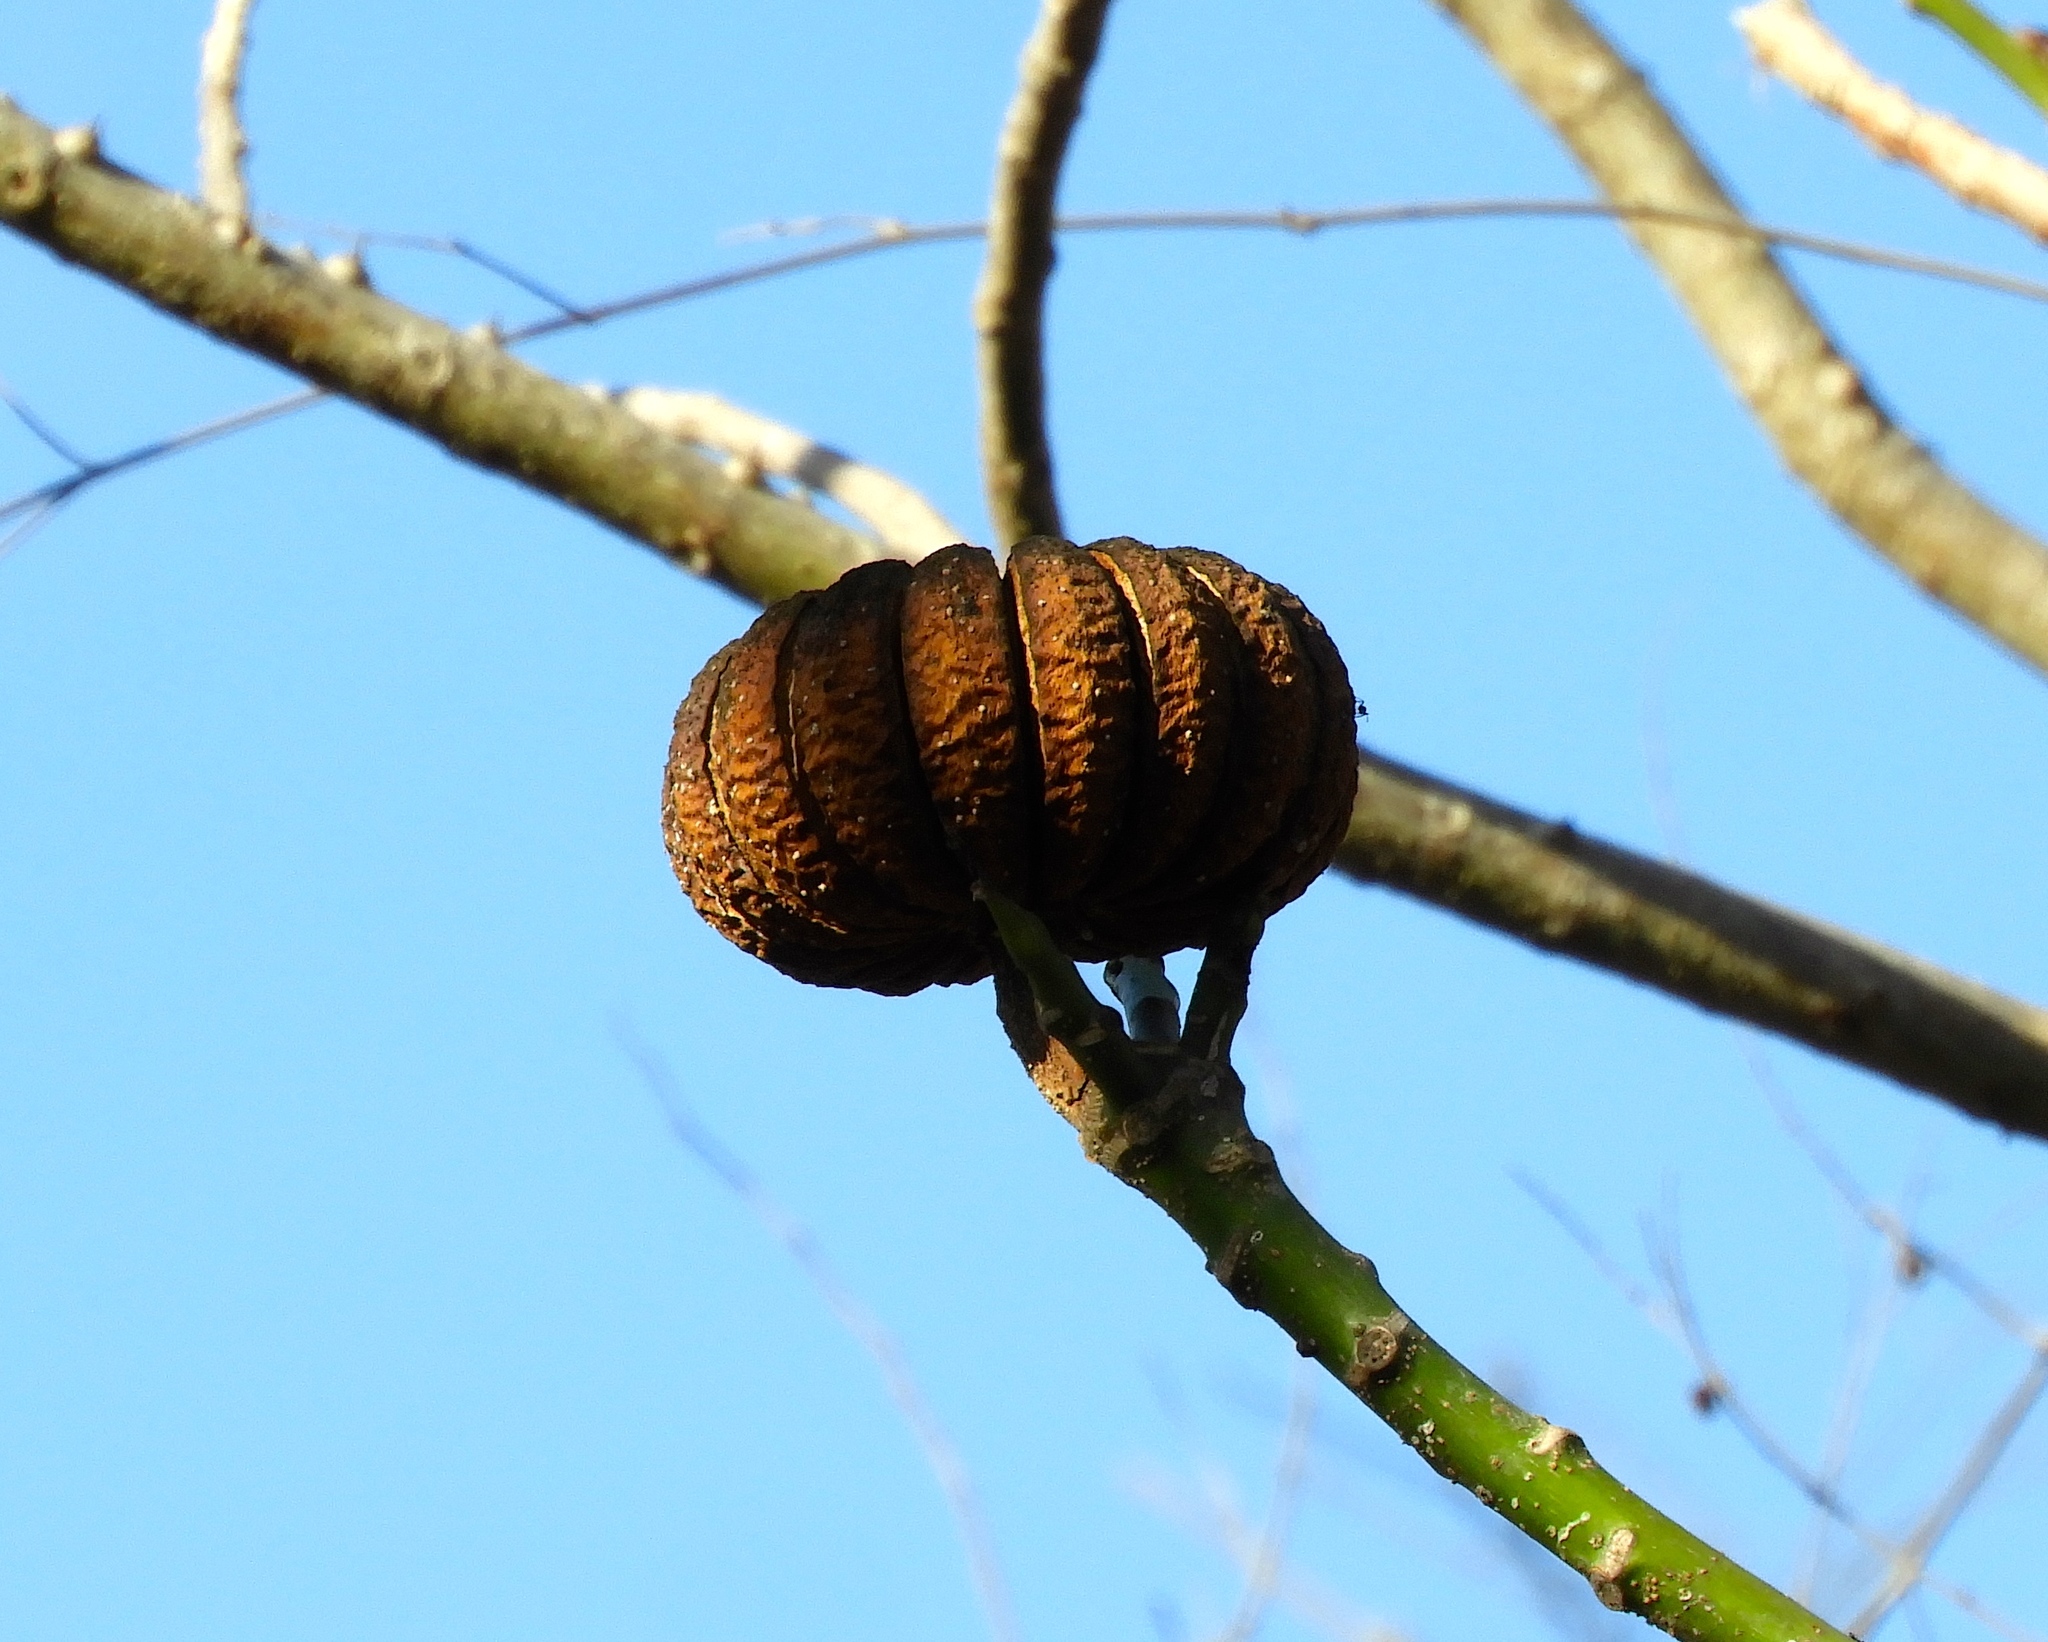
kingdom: Plantae
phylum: Tracheophyta
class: Magnoliopsida
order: Malpighiales
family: Euphorbiaceae
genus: Hura
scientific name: Hura polyandra
